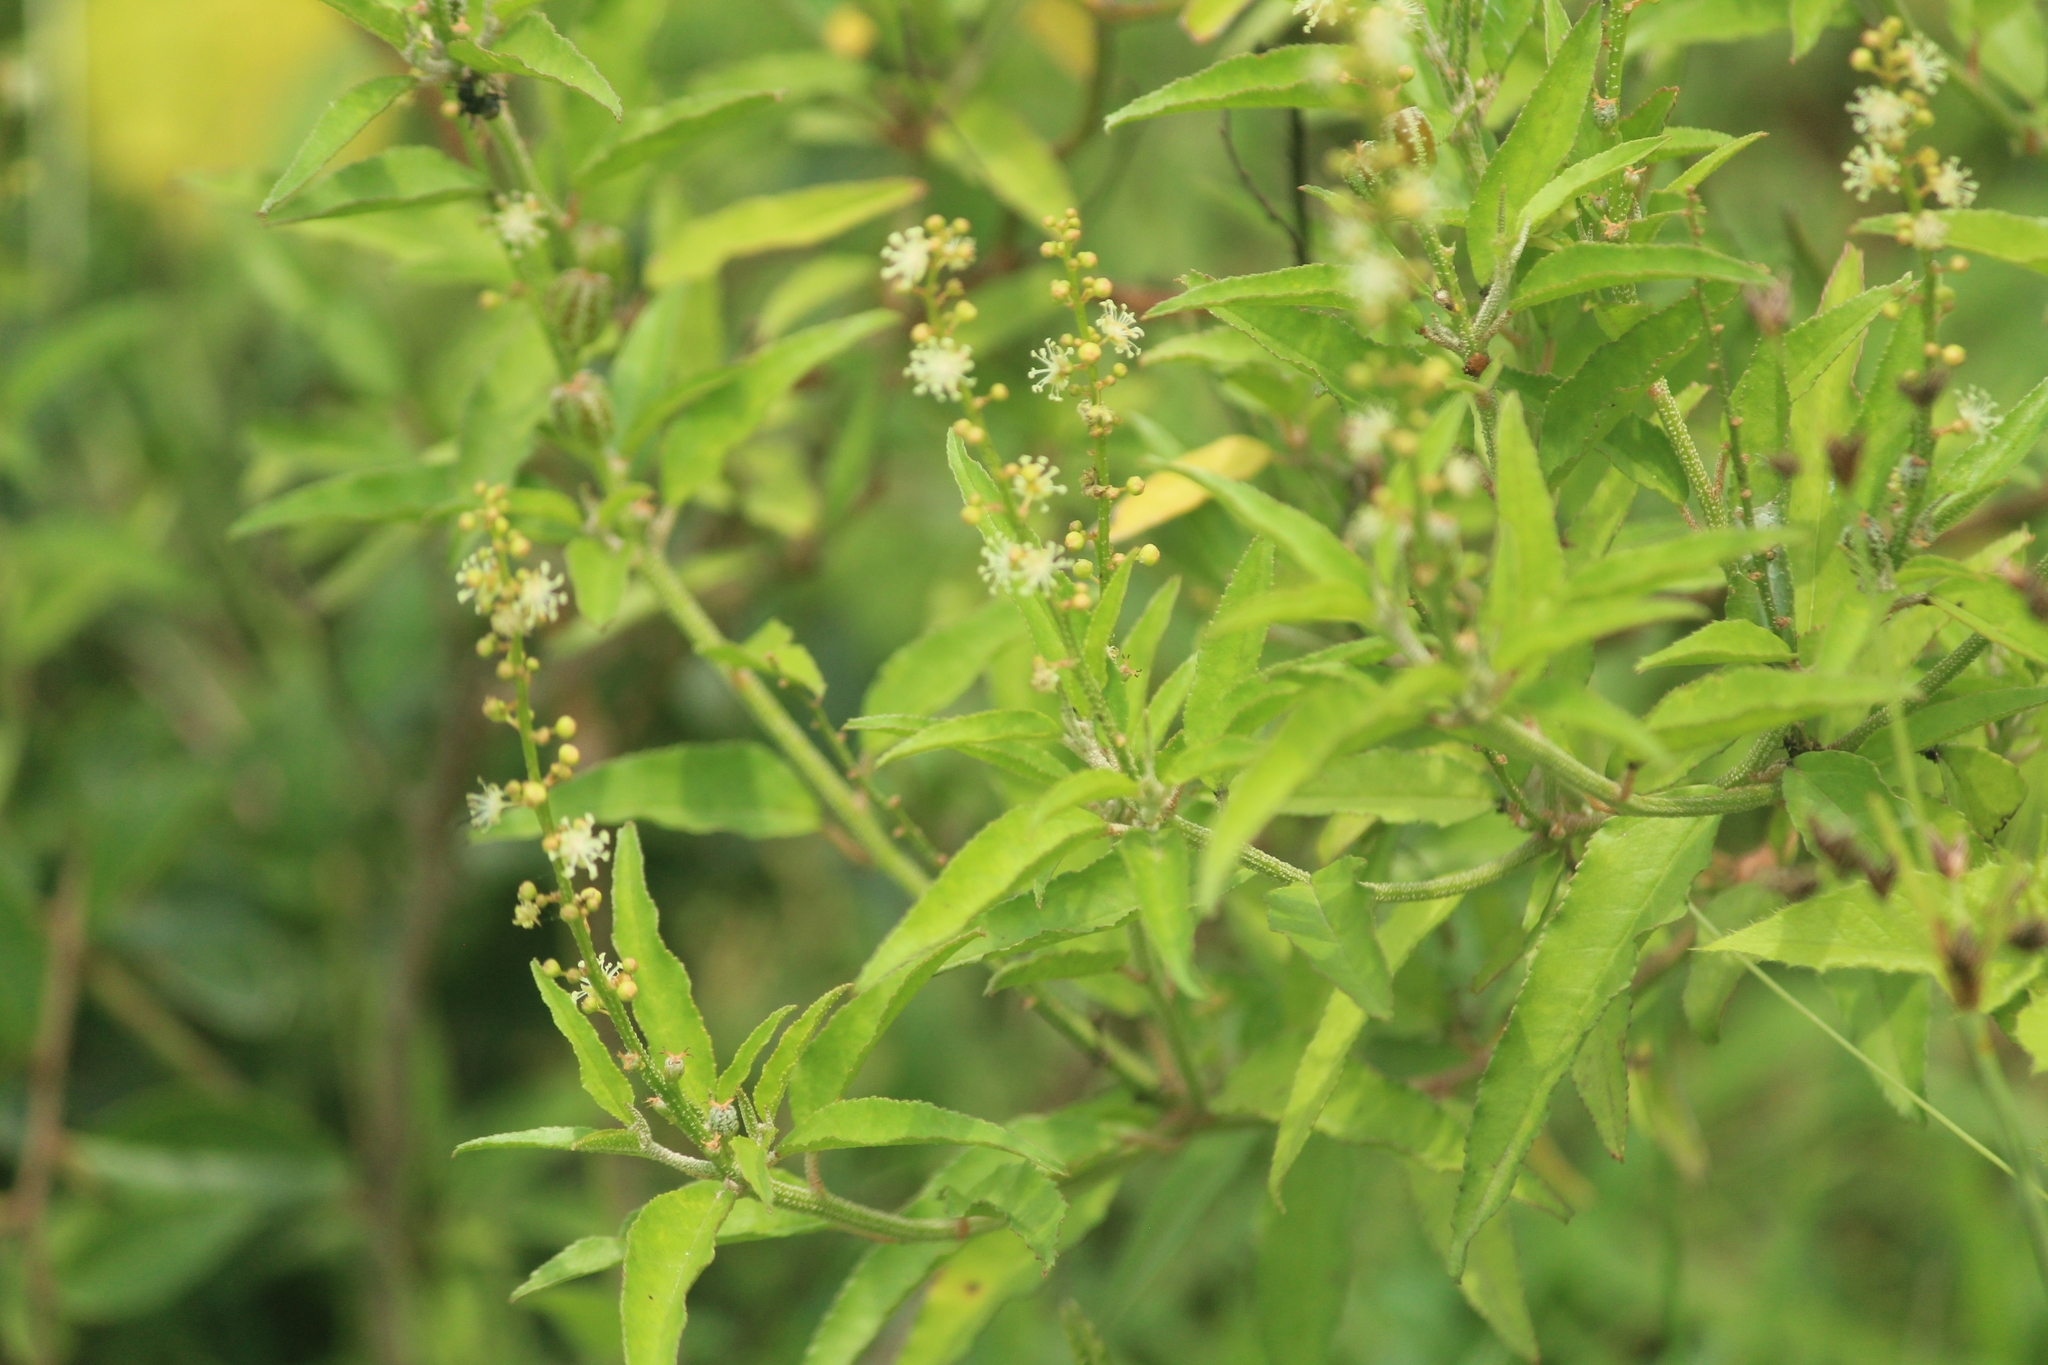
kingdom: Plantae
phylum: Tracheophyta
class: Magnoliopsida
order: Malpighiales
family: Euphorbiaceae
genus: Croton
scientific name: Croton bonplandianus
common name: Bonpland's croton
